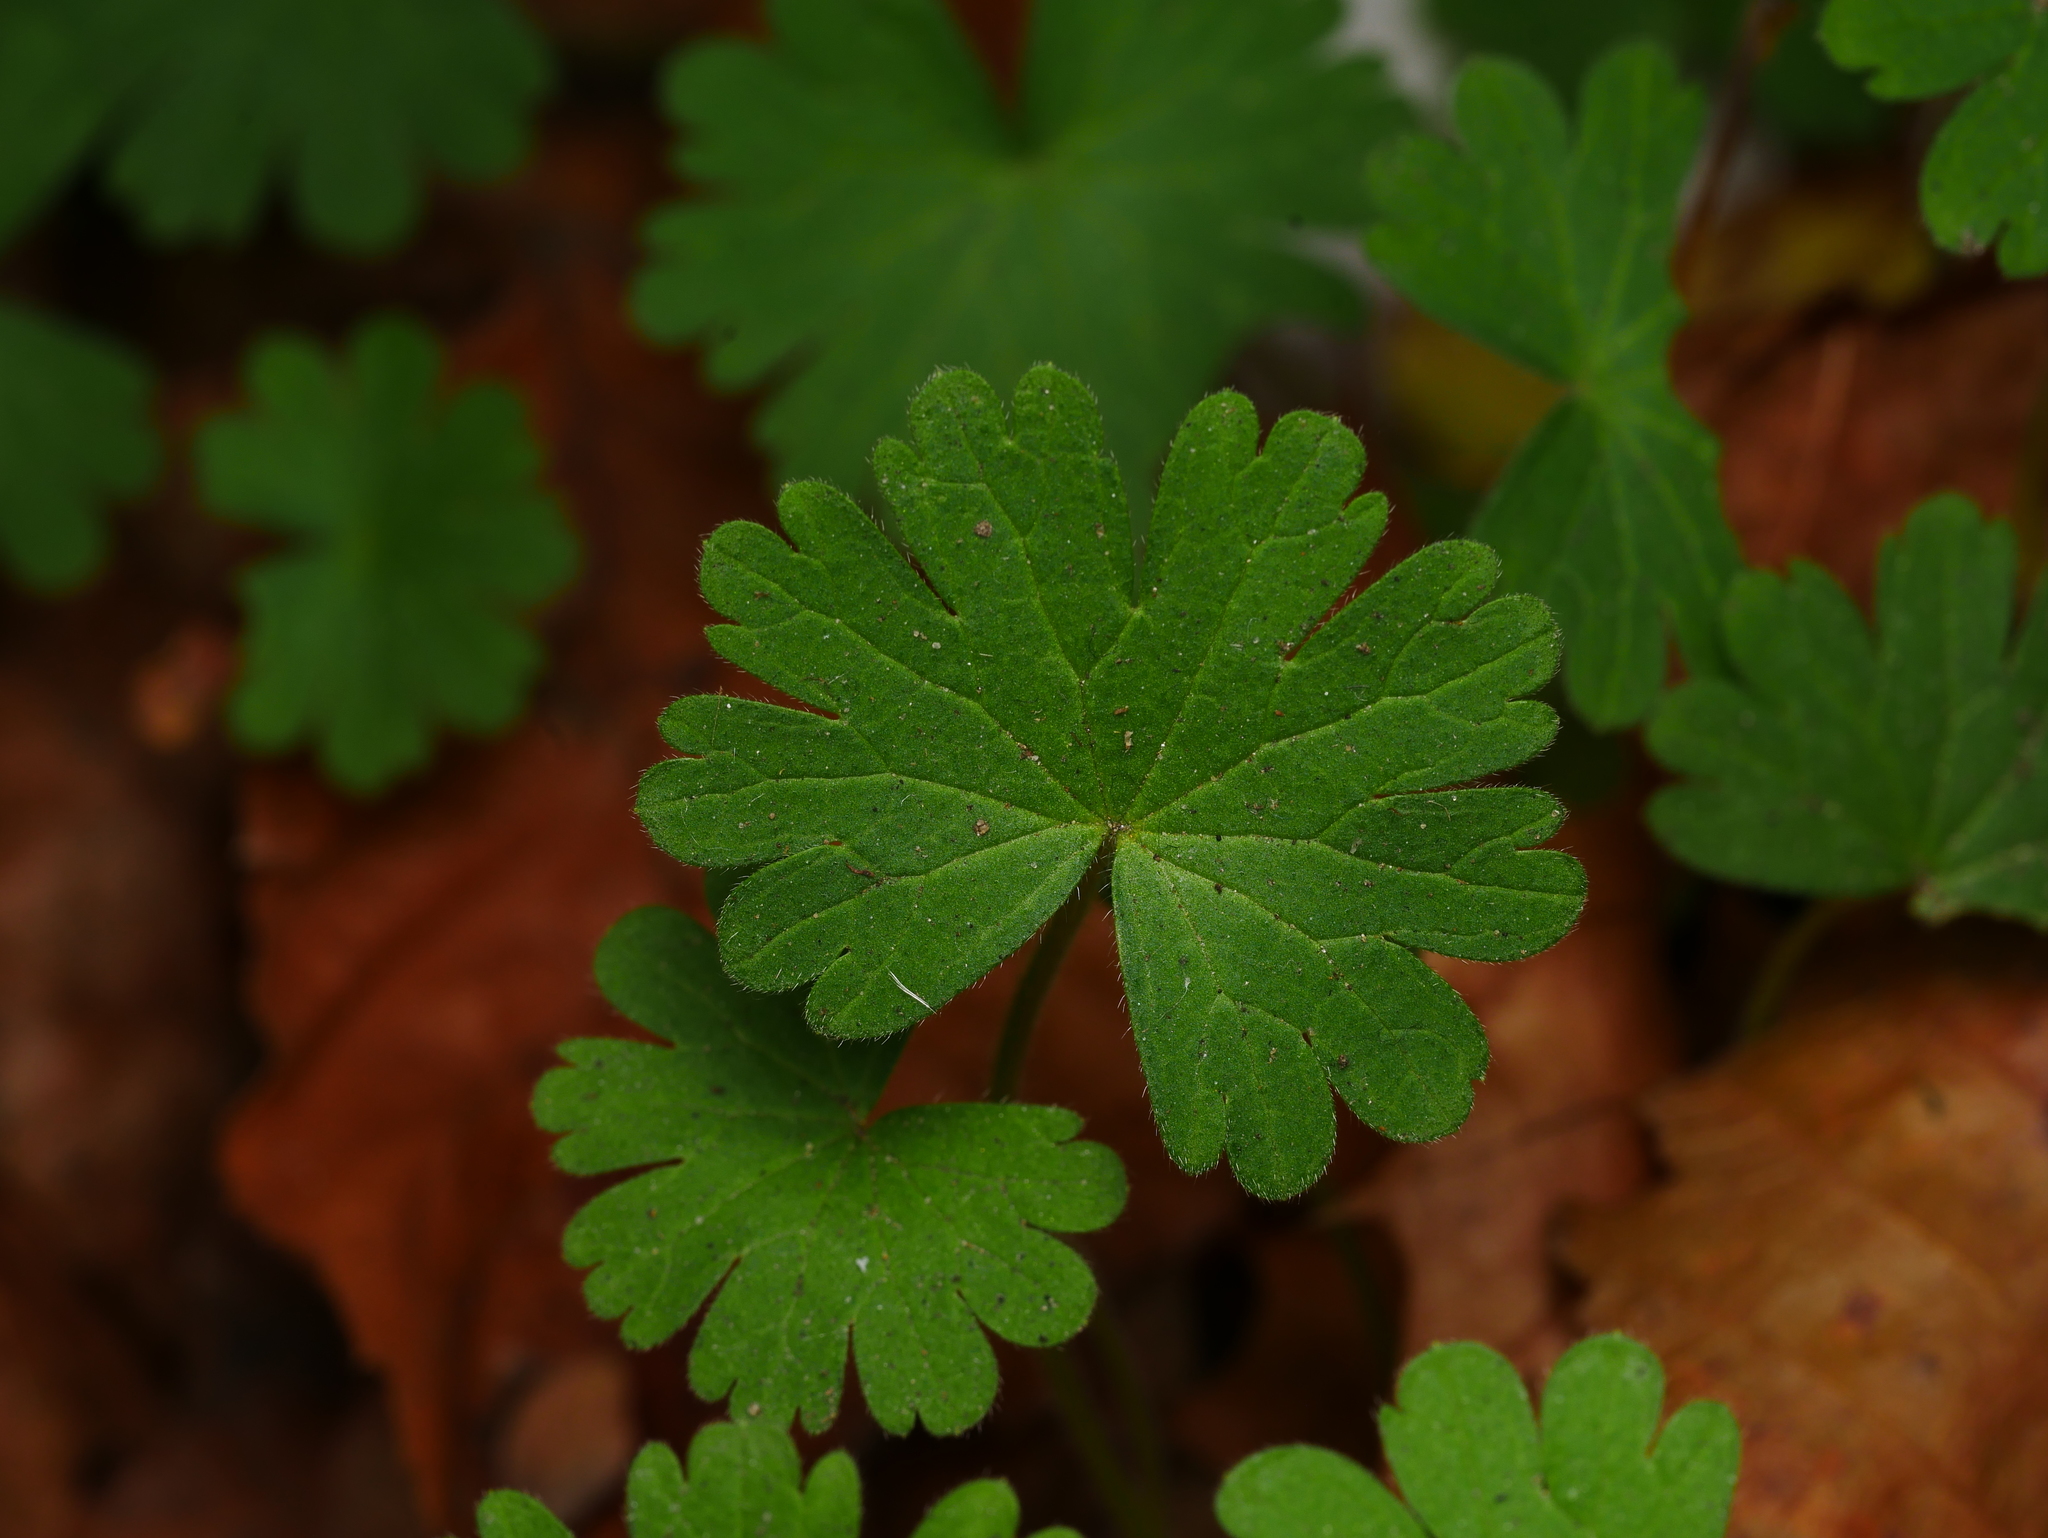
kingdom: Plantae
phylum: Tracheophyta
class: Magnoliopsida
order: Geraniales
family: Geraniaceae
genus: Geranium
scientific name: Geranium molle
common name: Dove's-foot crane's-bill
